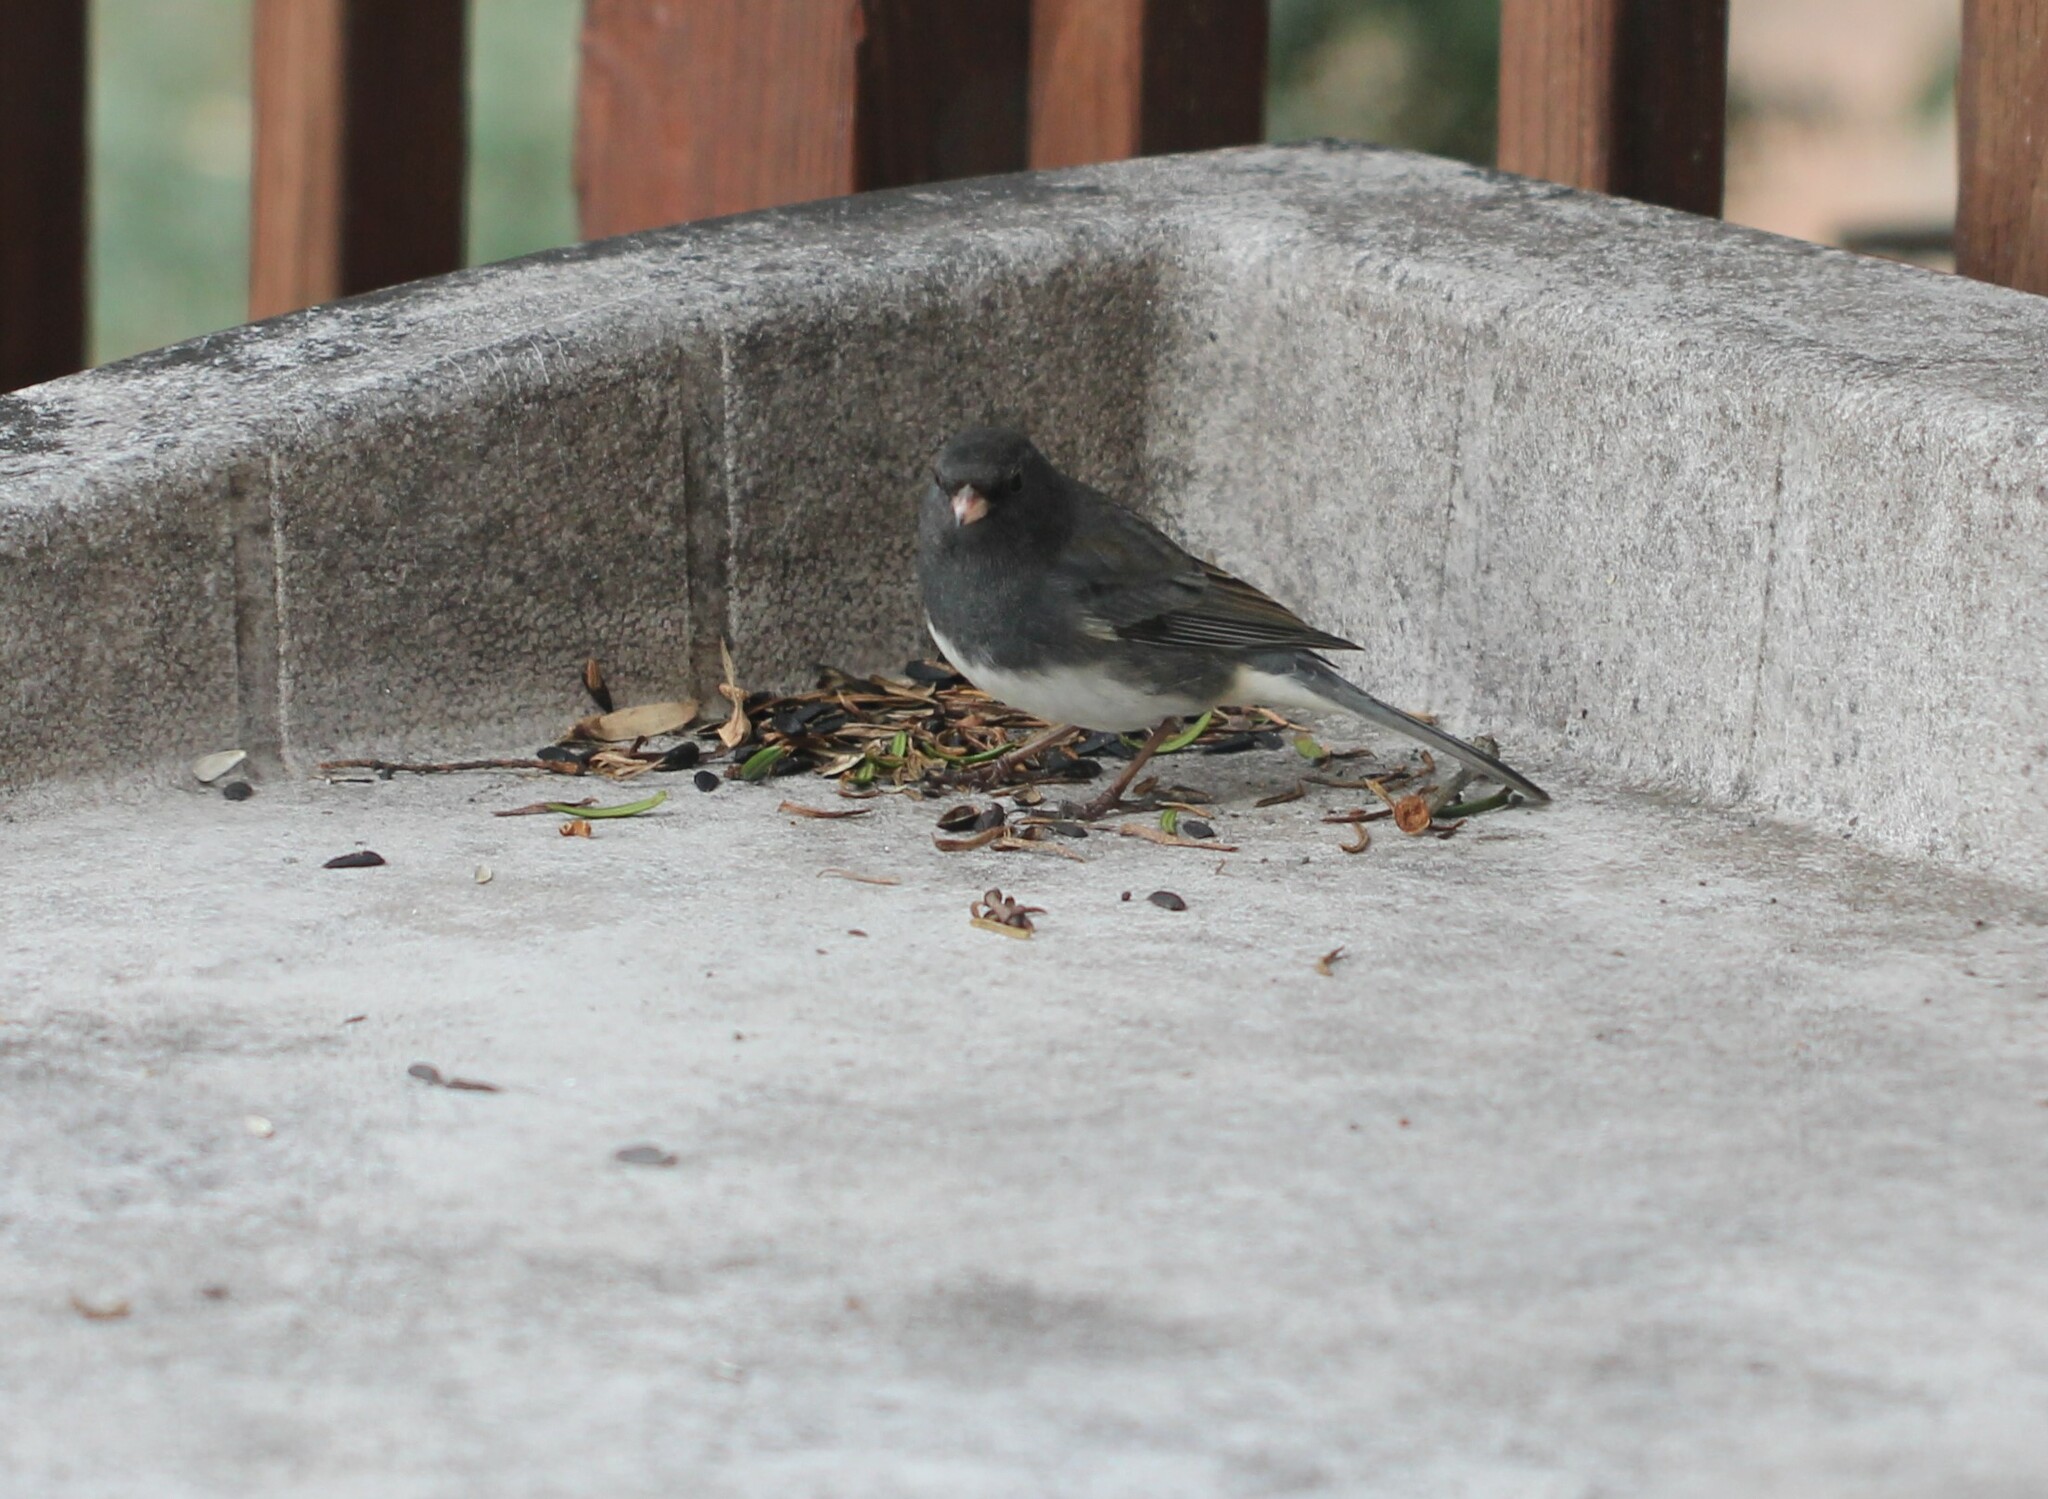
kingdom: Animalia
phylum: Chordata
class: Aves
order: Passeriformes
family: Passerellidae
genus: Junco
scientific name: Junco hyemalis
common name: Dark-eyed junco
